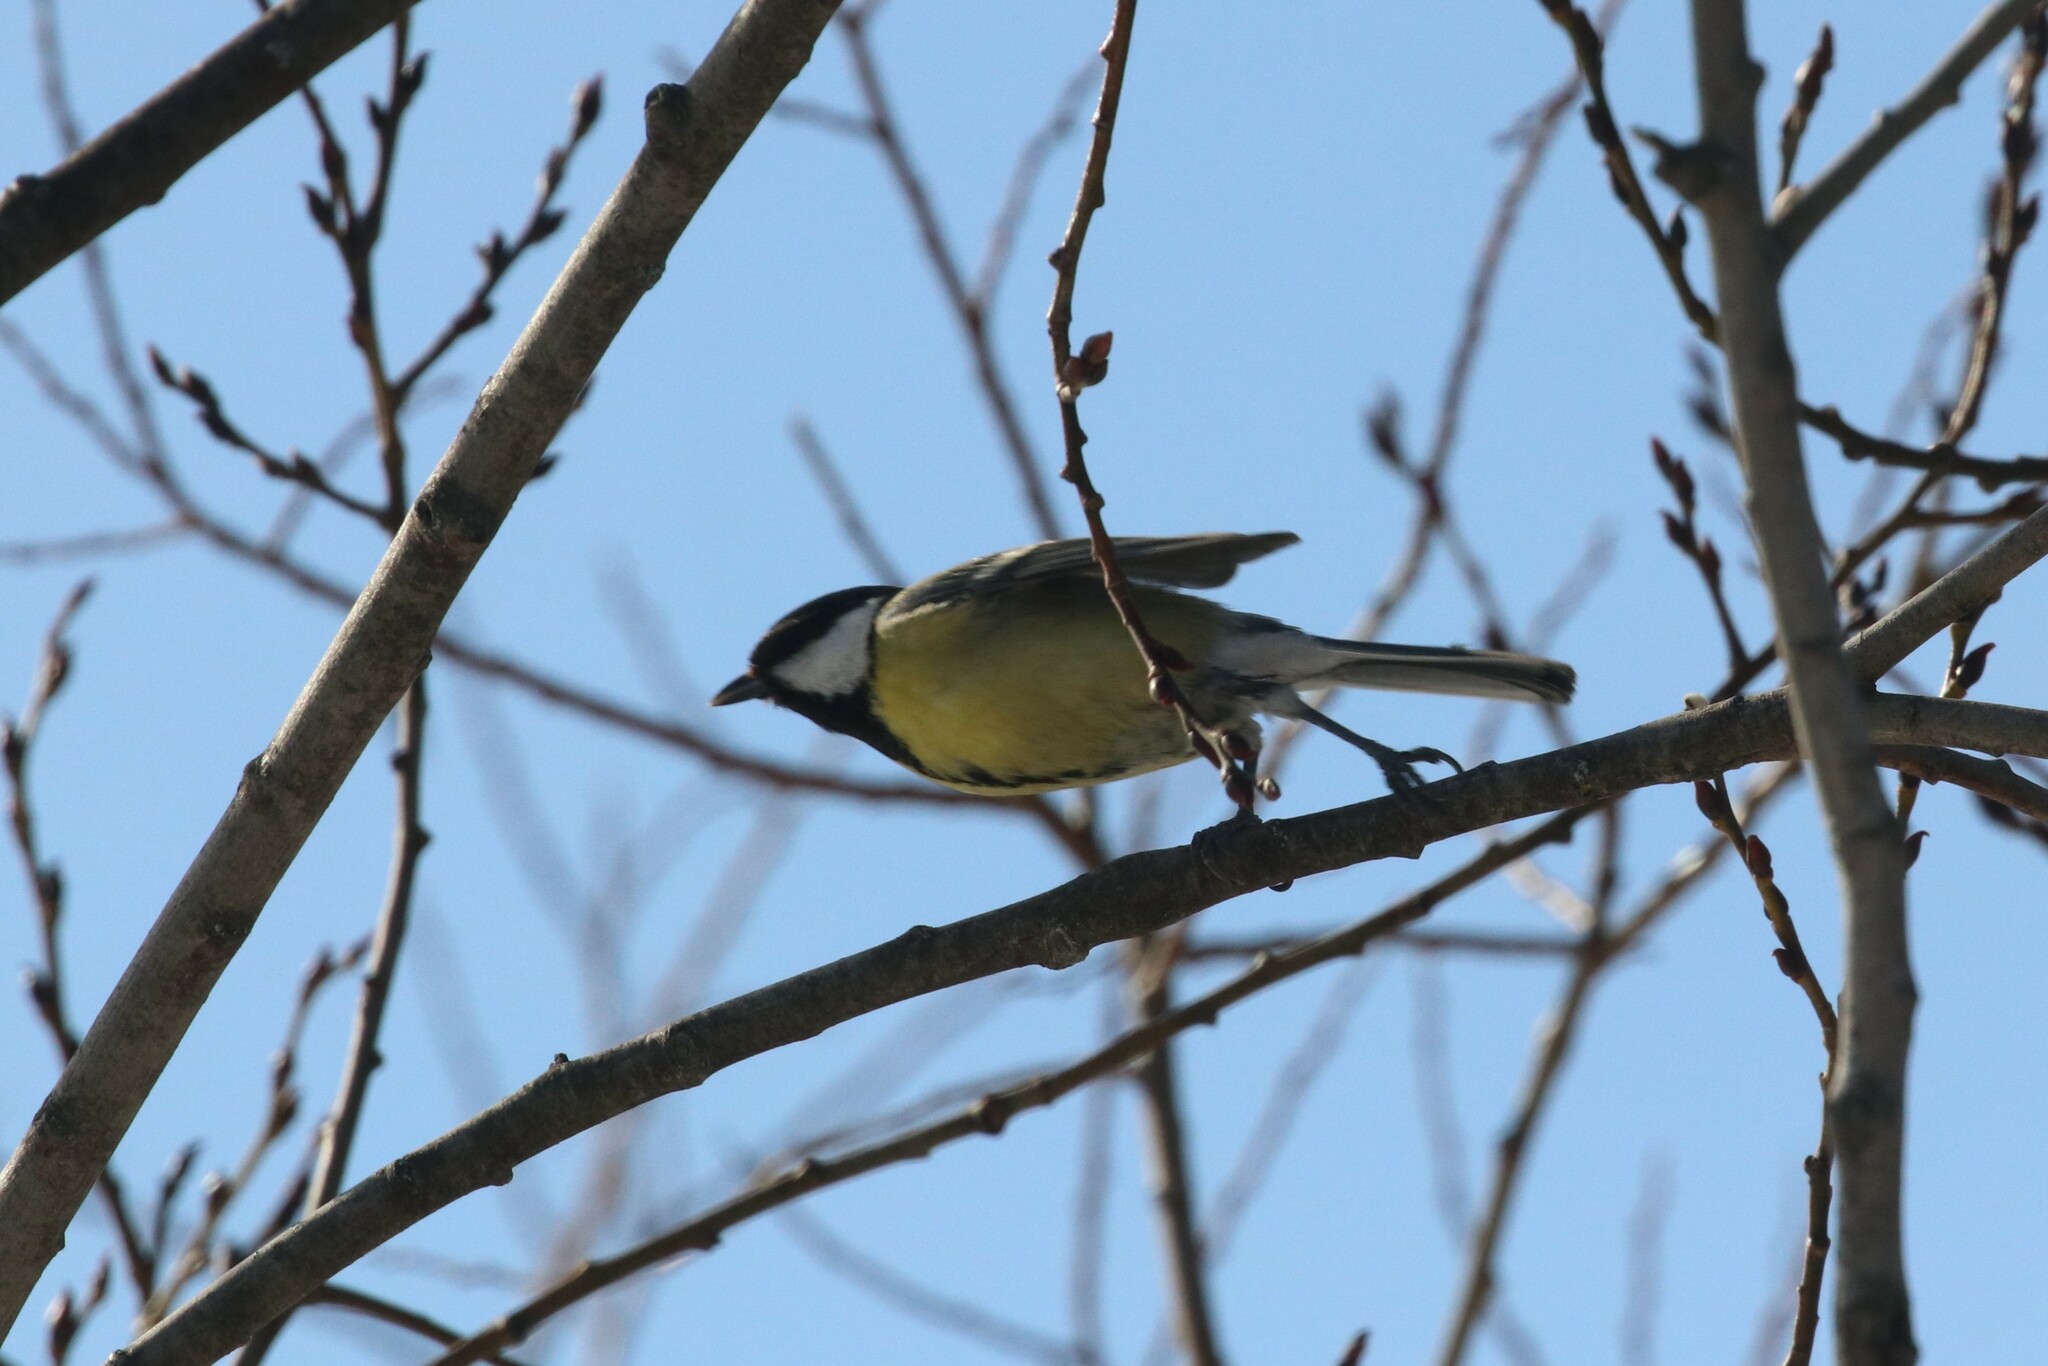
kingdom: Animalia
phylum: Chordata
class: Aves
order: Passeriformes
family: Paridae
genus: Parus
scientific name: Parus major
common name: Great tit
